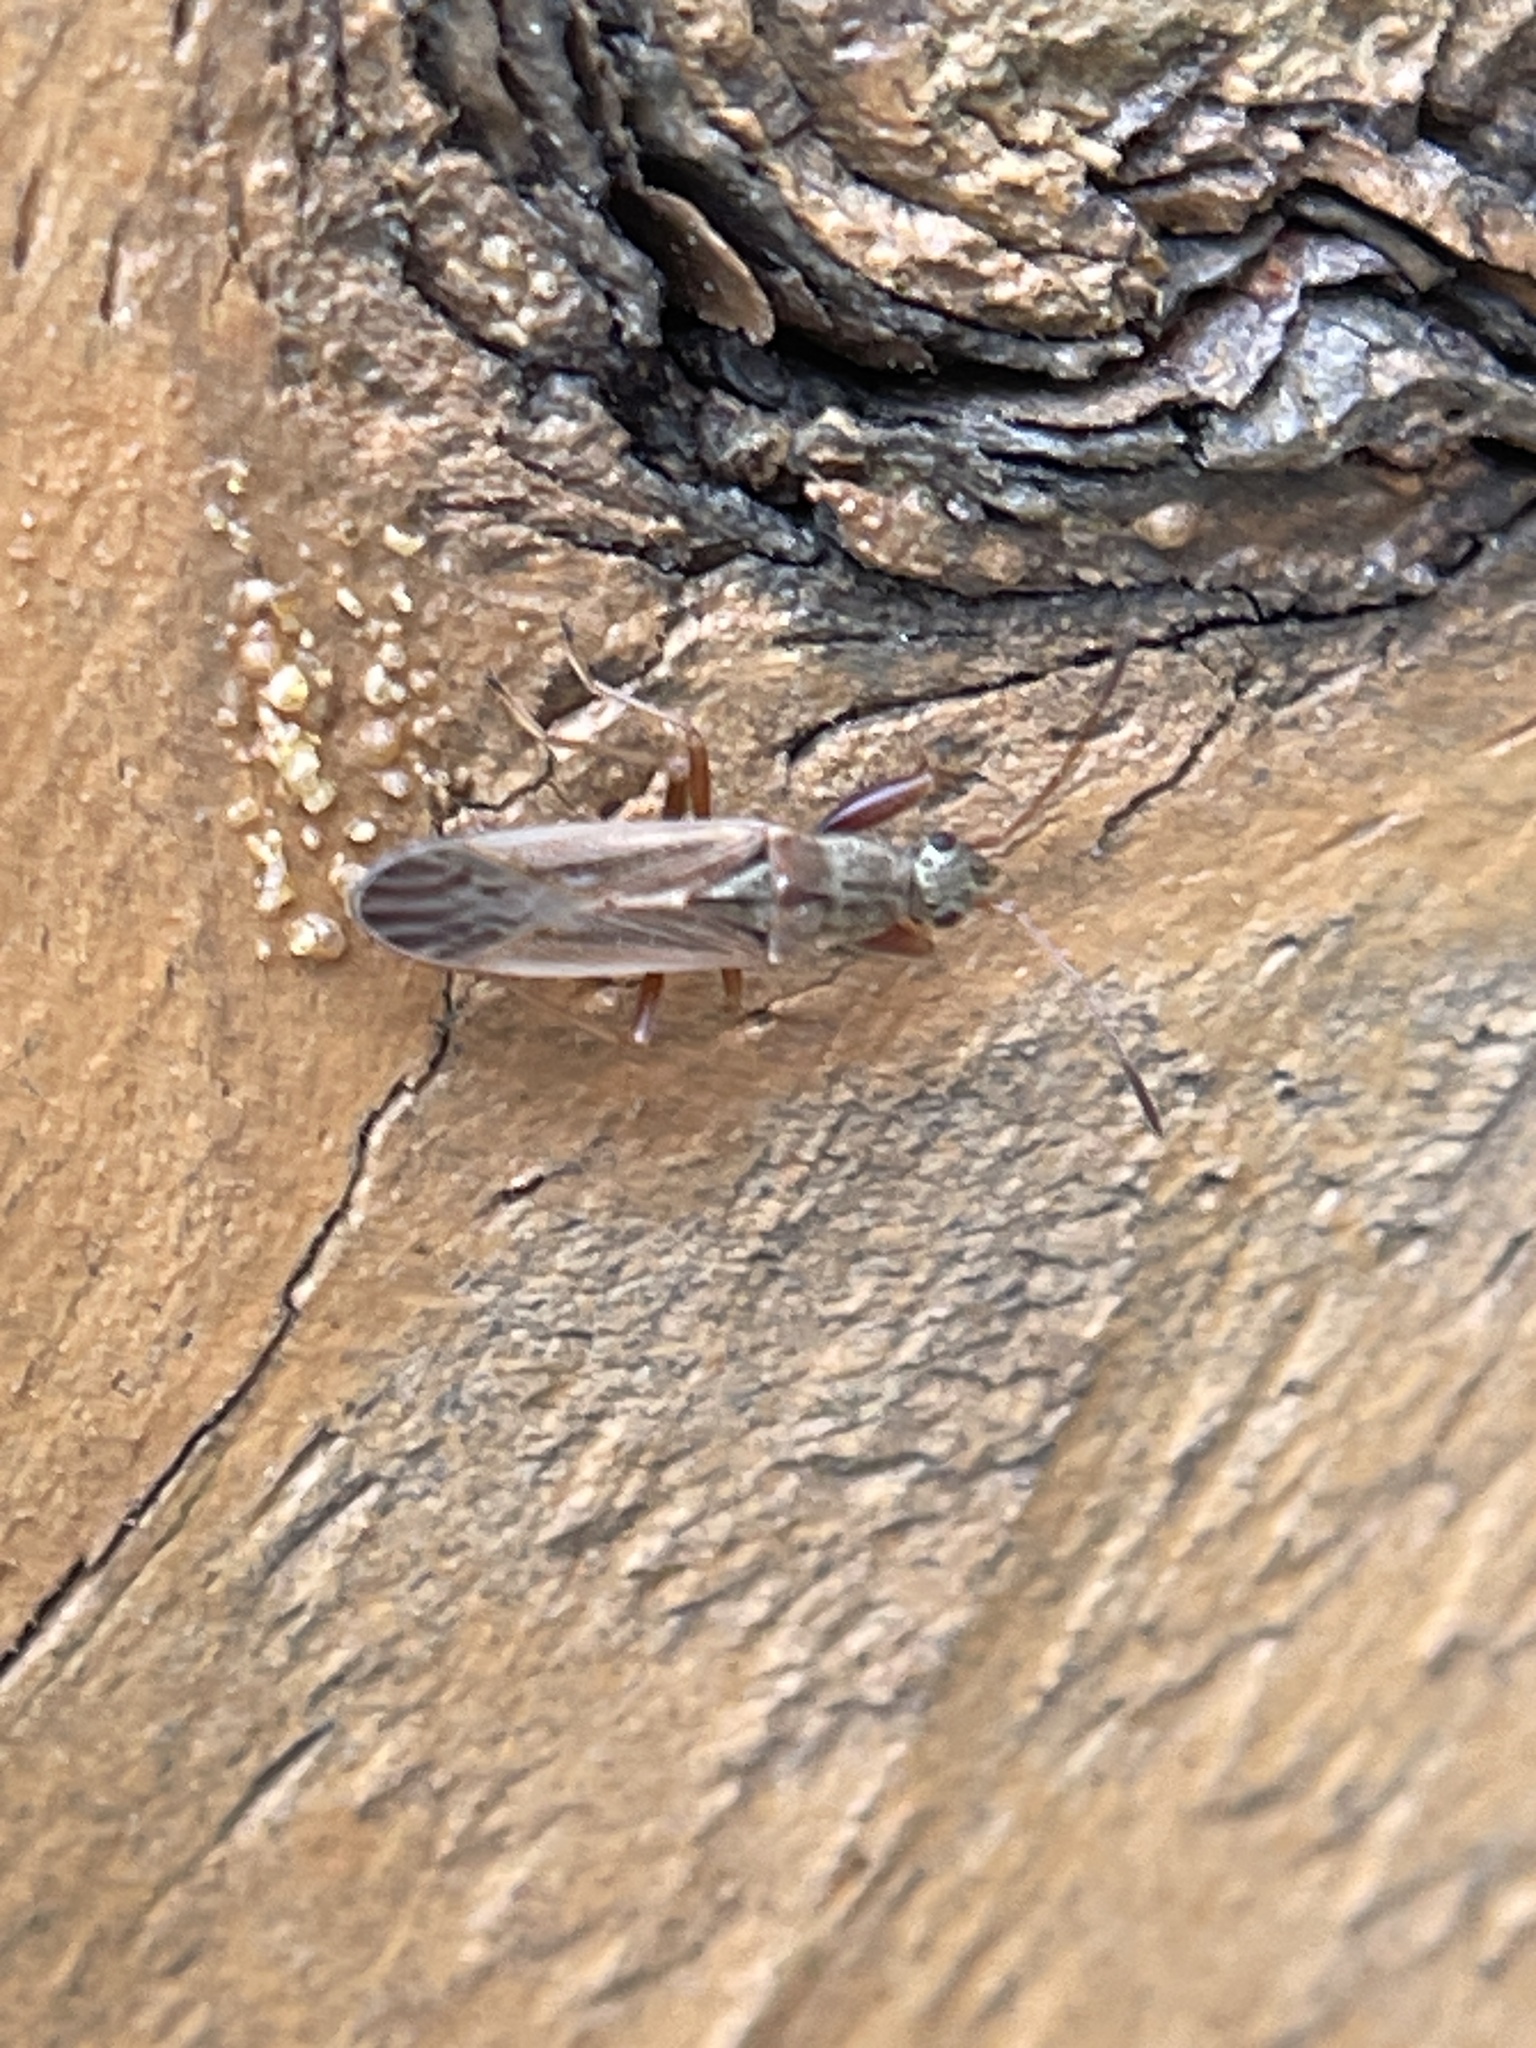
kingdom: Animalia
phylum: Arthropoda
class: Insecta
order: Hemiptera
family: Rhyparochromidae
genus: Paromius
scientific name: Paromius longulus
